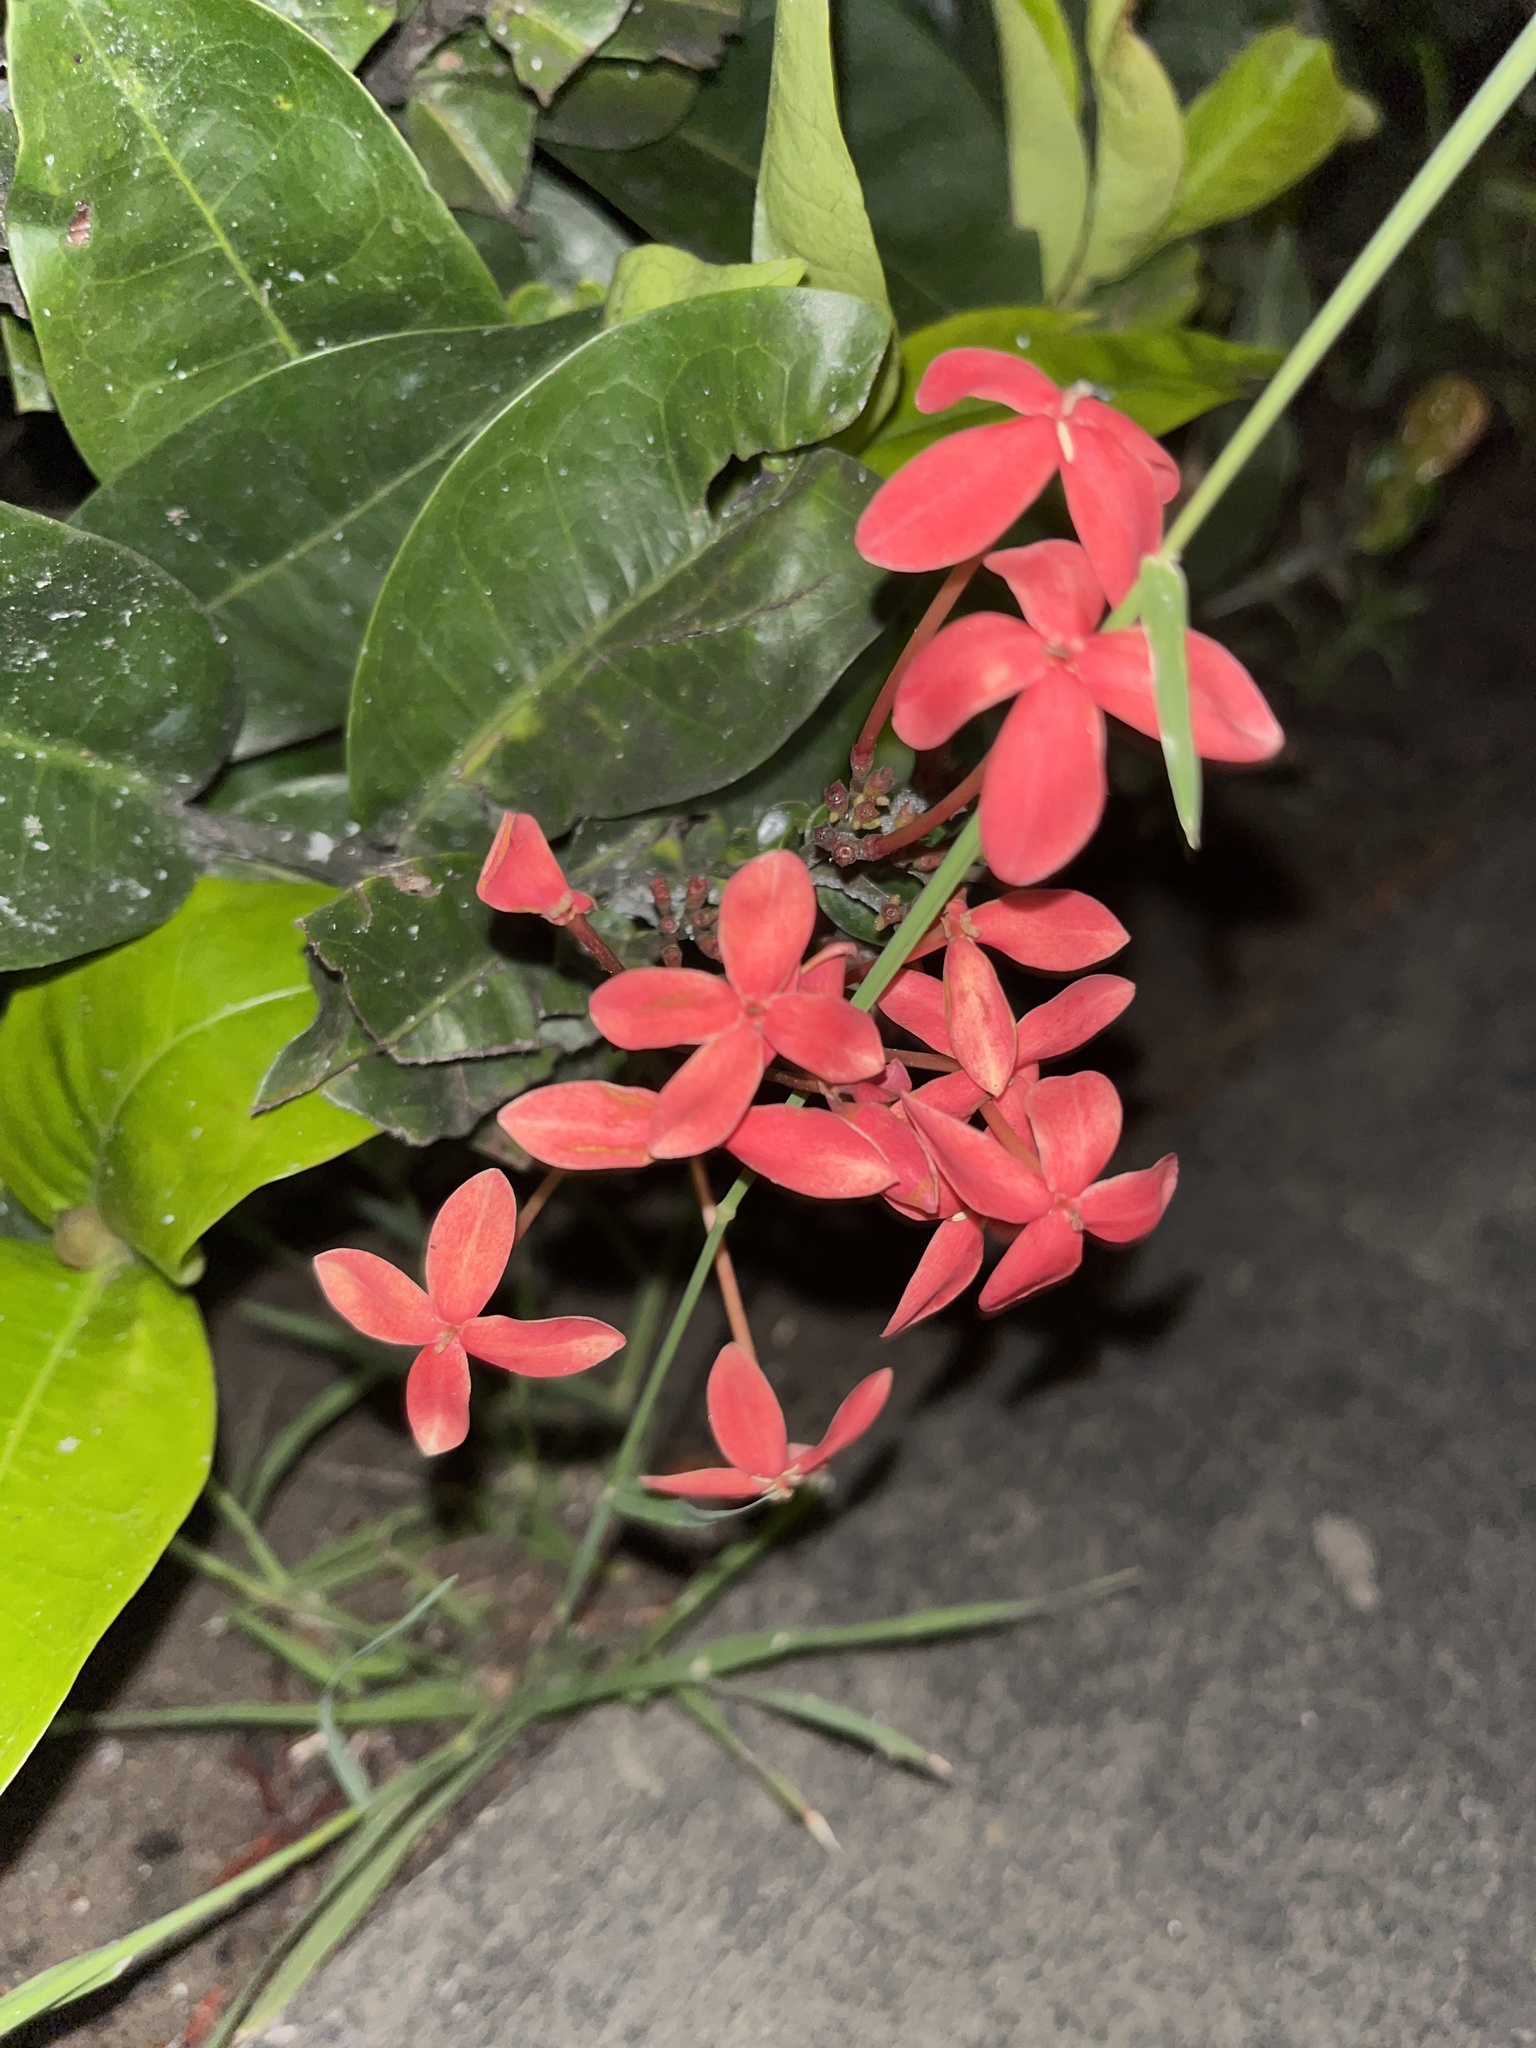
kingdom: Plantae
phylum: Tracheophyta
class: Magnoliopsida
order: Gentianales
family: Rubiaceae
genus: Ixora
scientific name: Ixora coccinea
